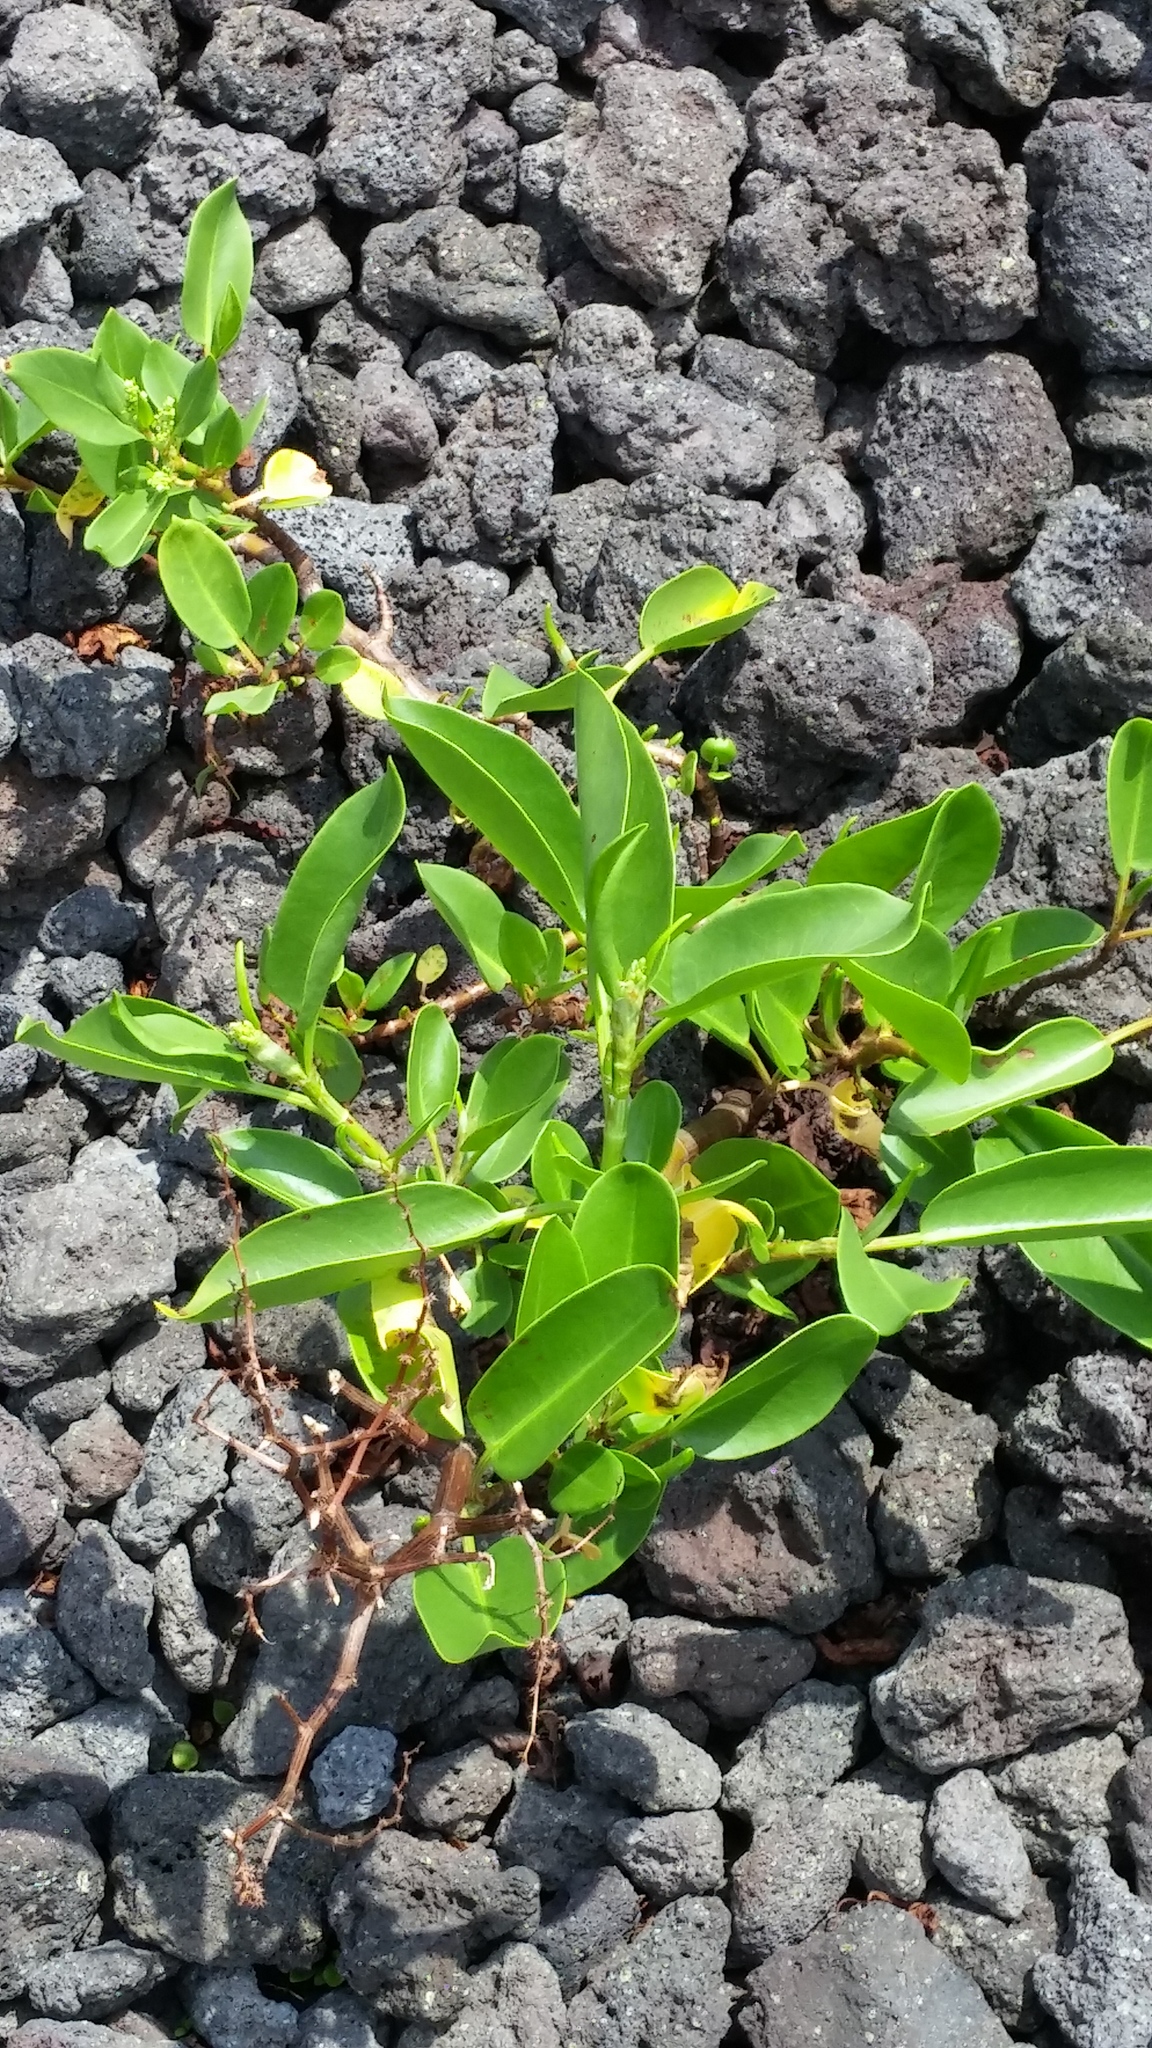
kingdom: Plantae
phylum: Tracheophyta
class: Magnoliopsida
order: Caryophyllales
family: Polygonaceae
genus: Rumex
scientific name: Rumex skottsbergii
